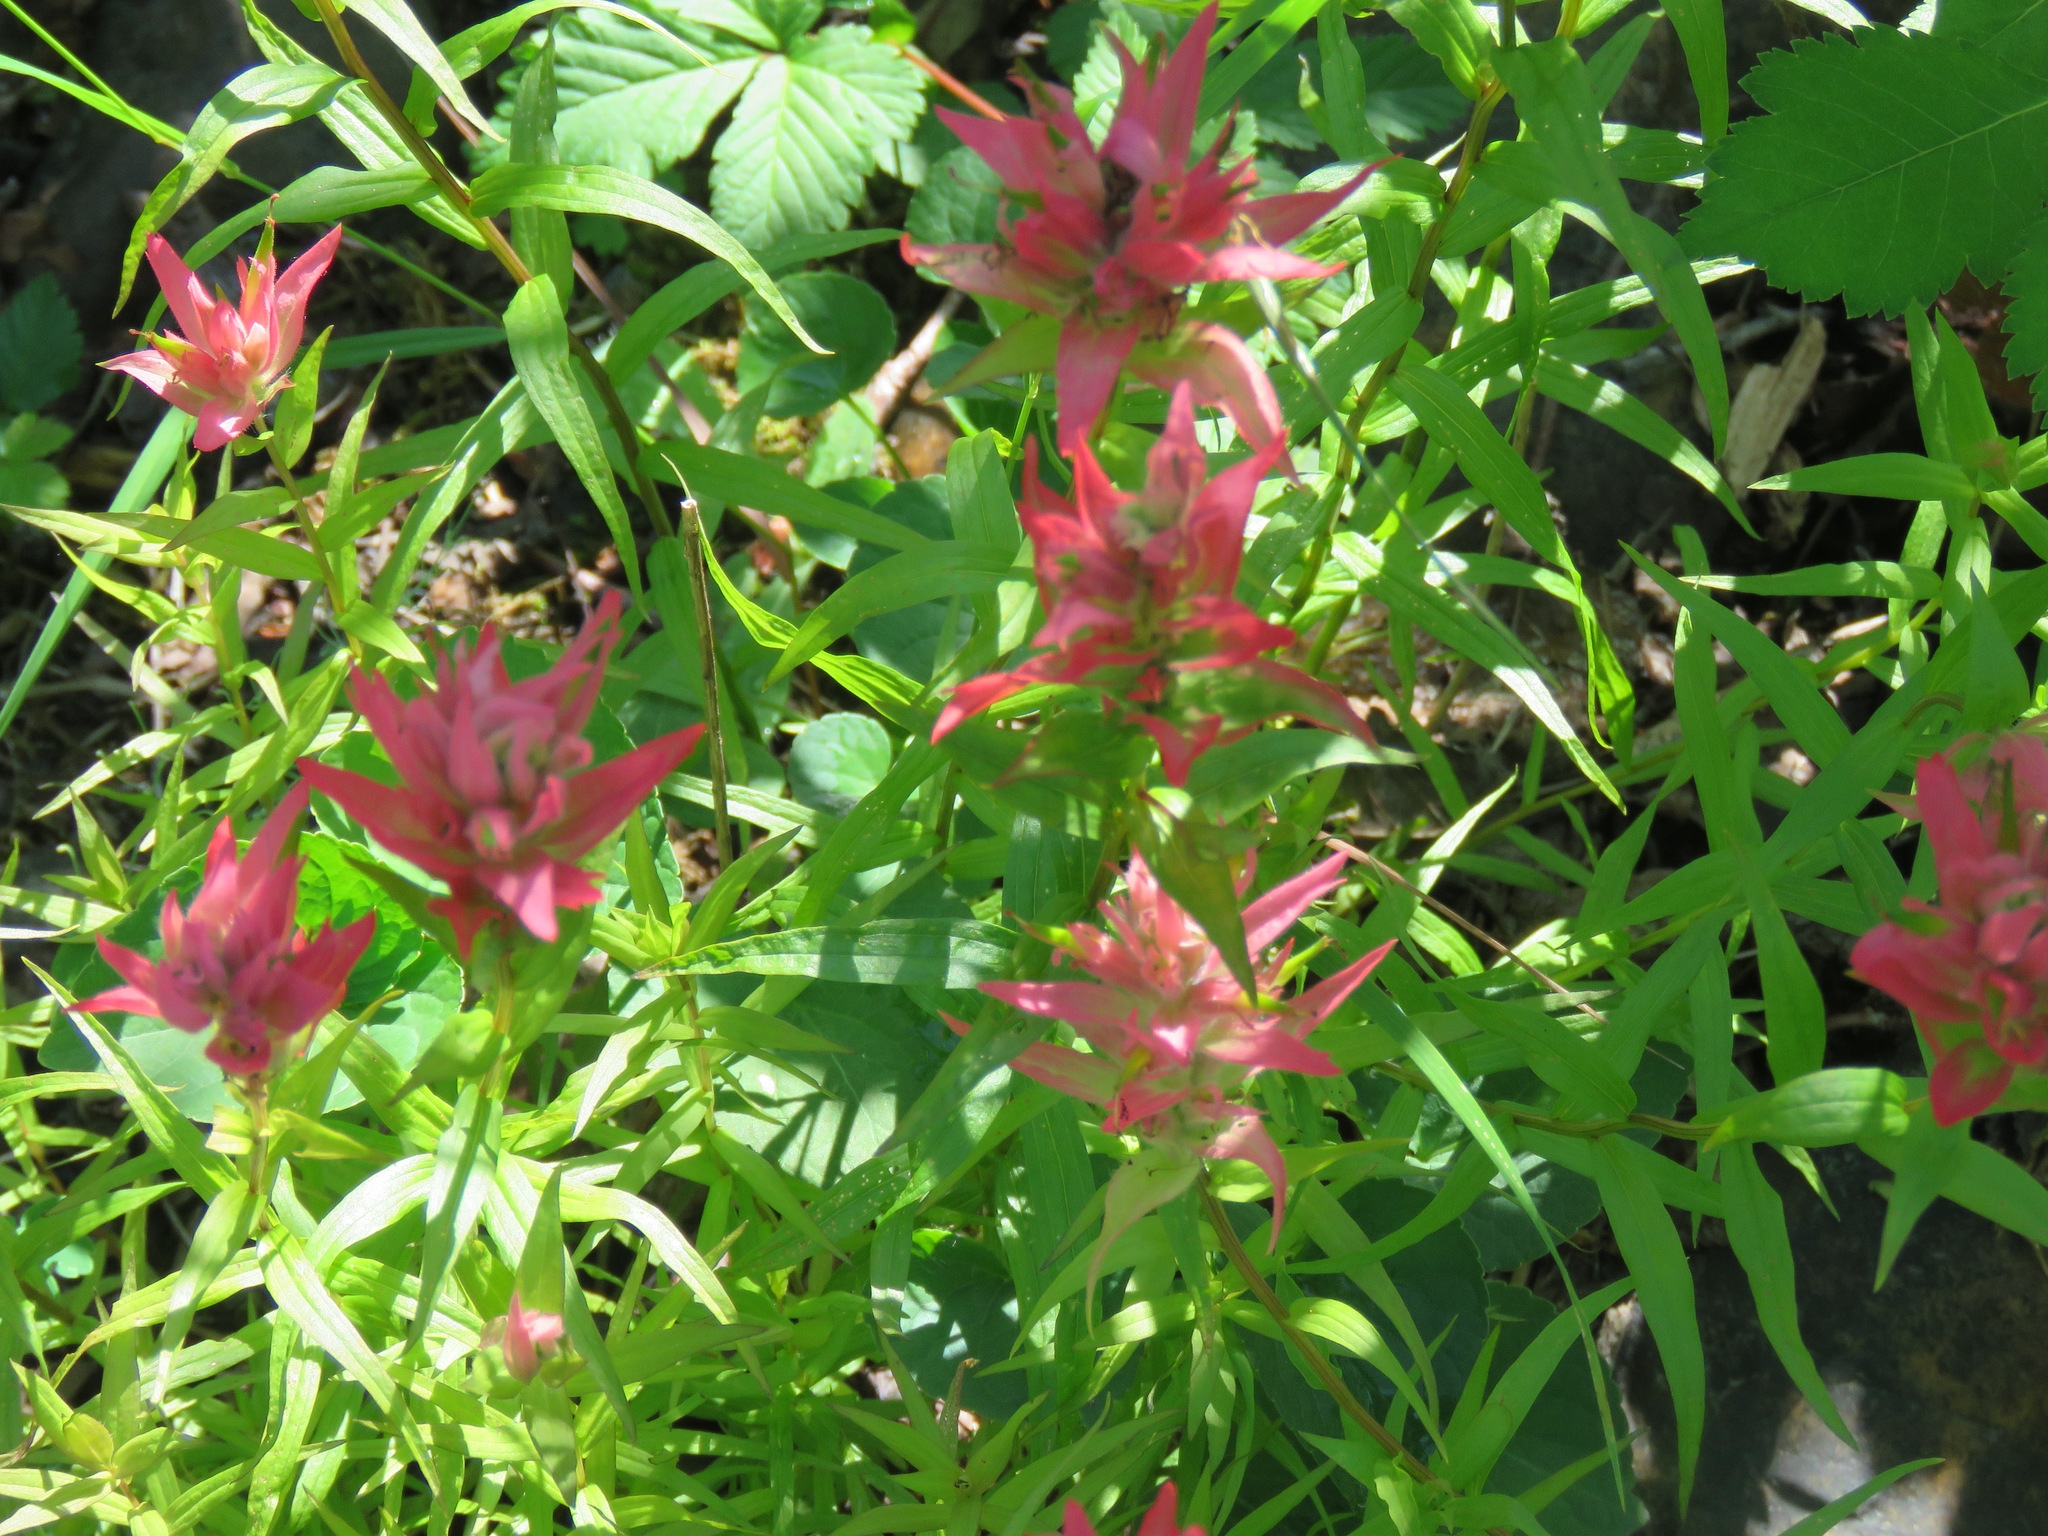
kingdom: Plantae
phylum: Tracheophyta
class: Magnoliopsida
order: Lamiales
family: Orobanchaceae
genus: Castilleja
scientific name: Castilleja miniata
